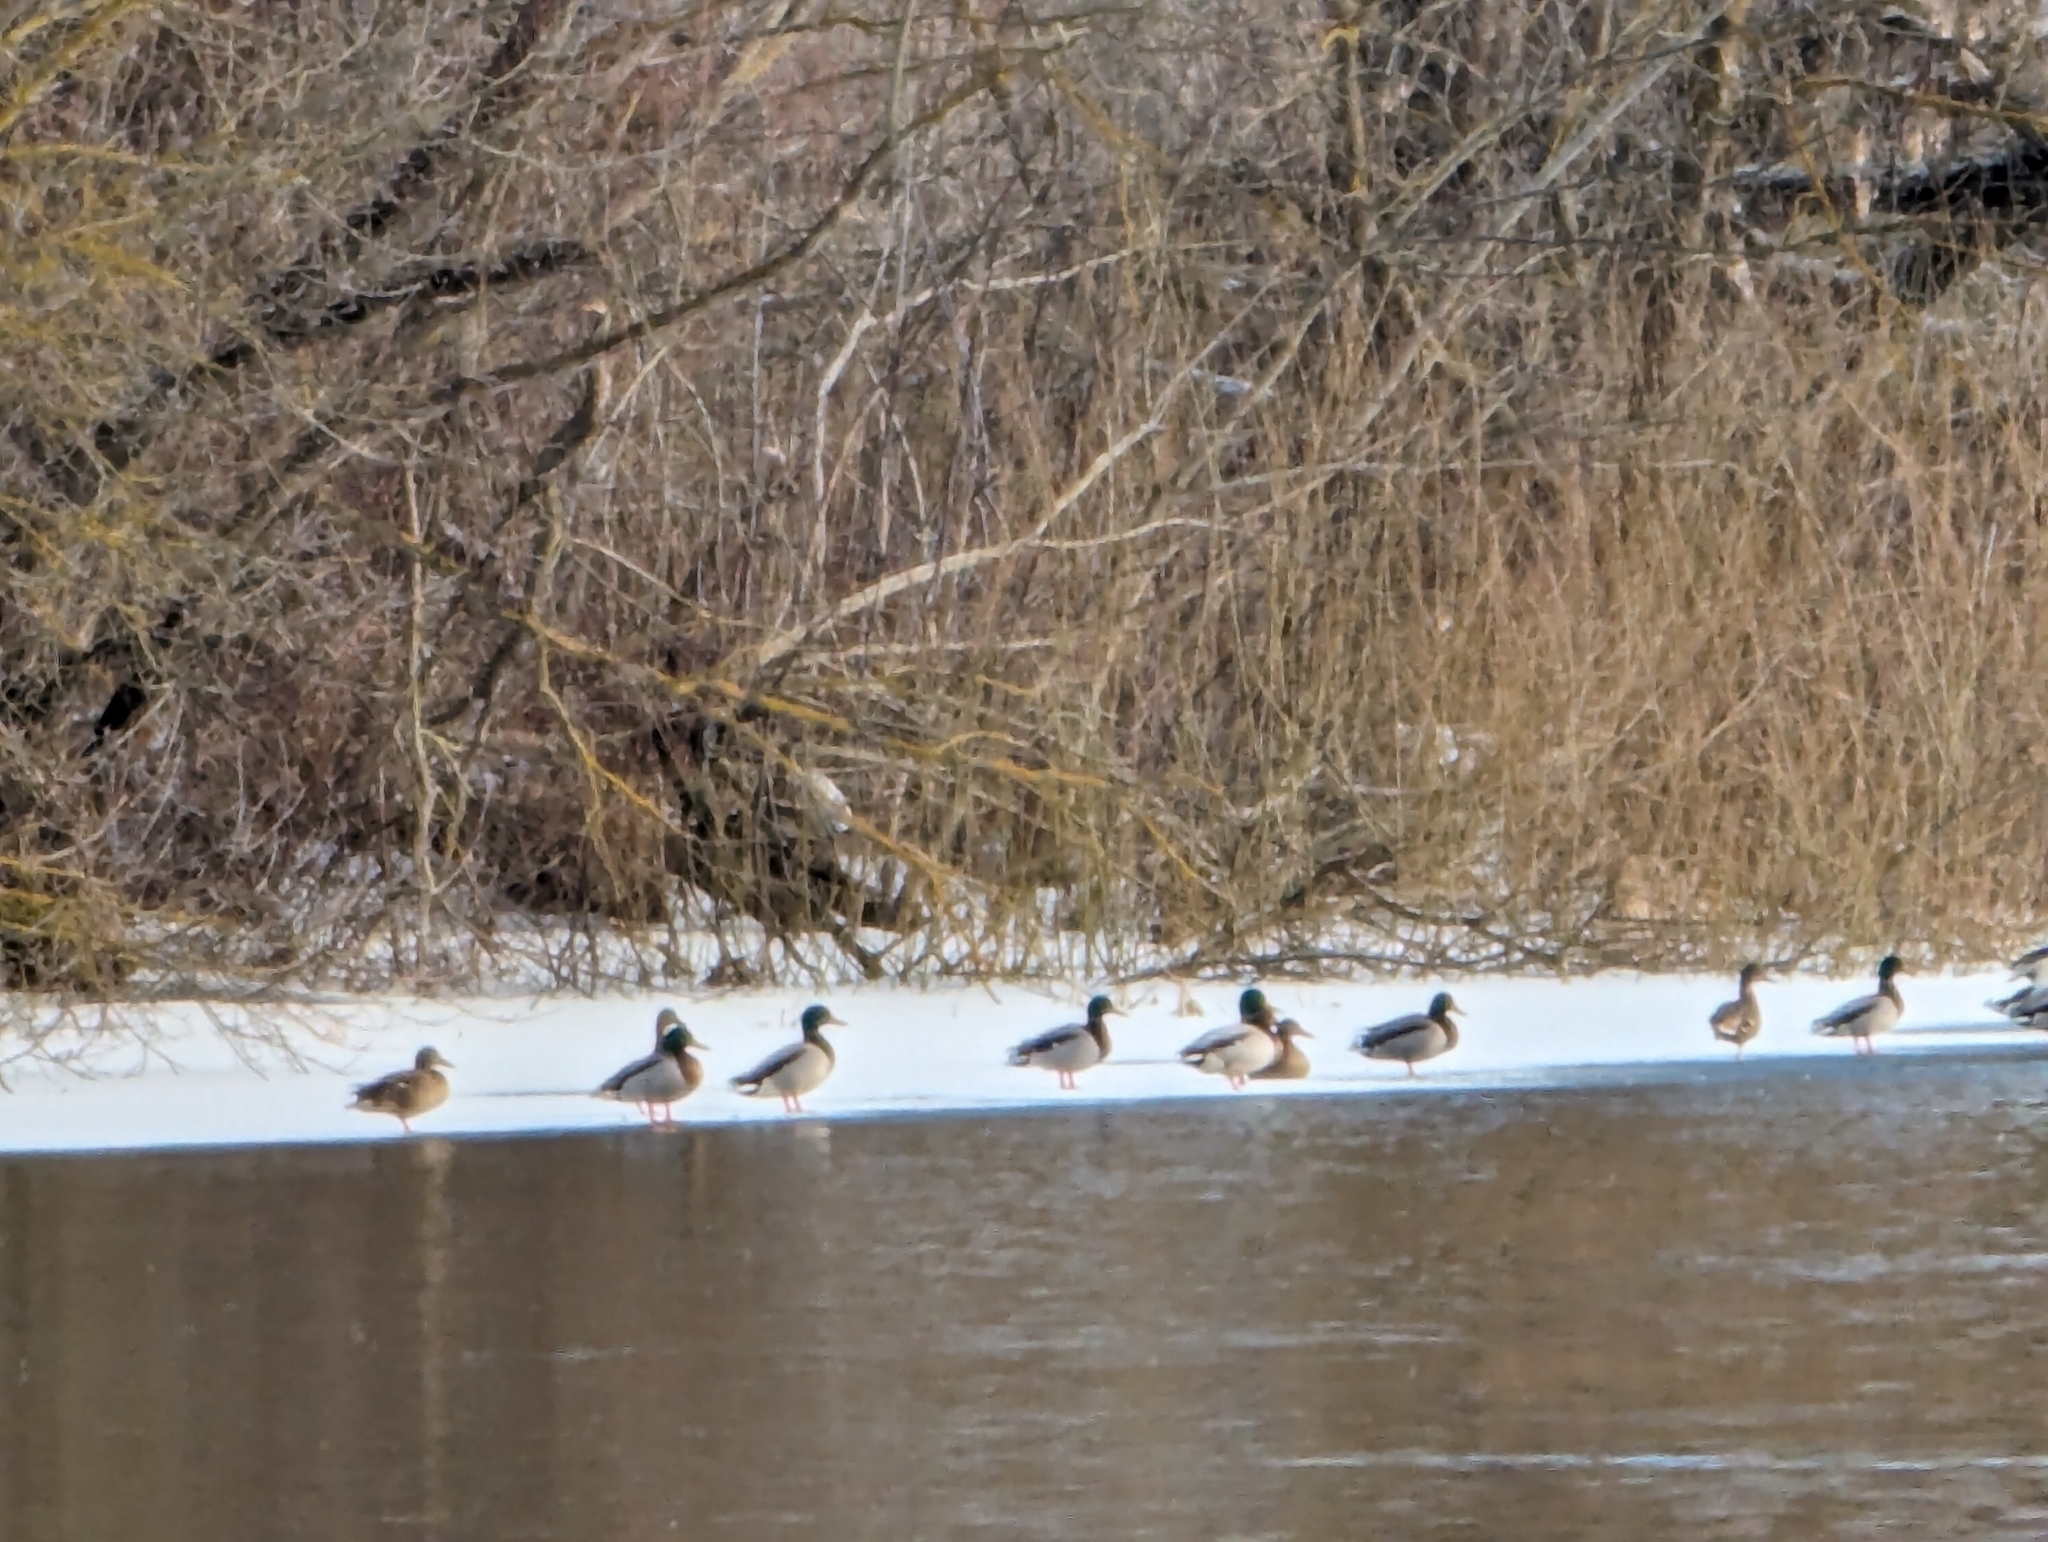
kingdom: Animalia
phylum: Chordata
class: Aves
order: Anseriformes
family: Anatidae
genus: Anas
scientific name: Anas platyrhynchos
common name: Mallard
